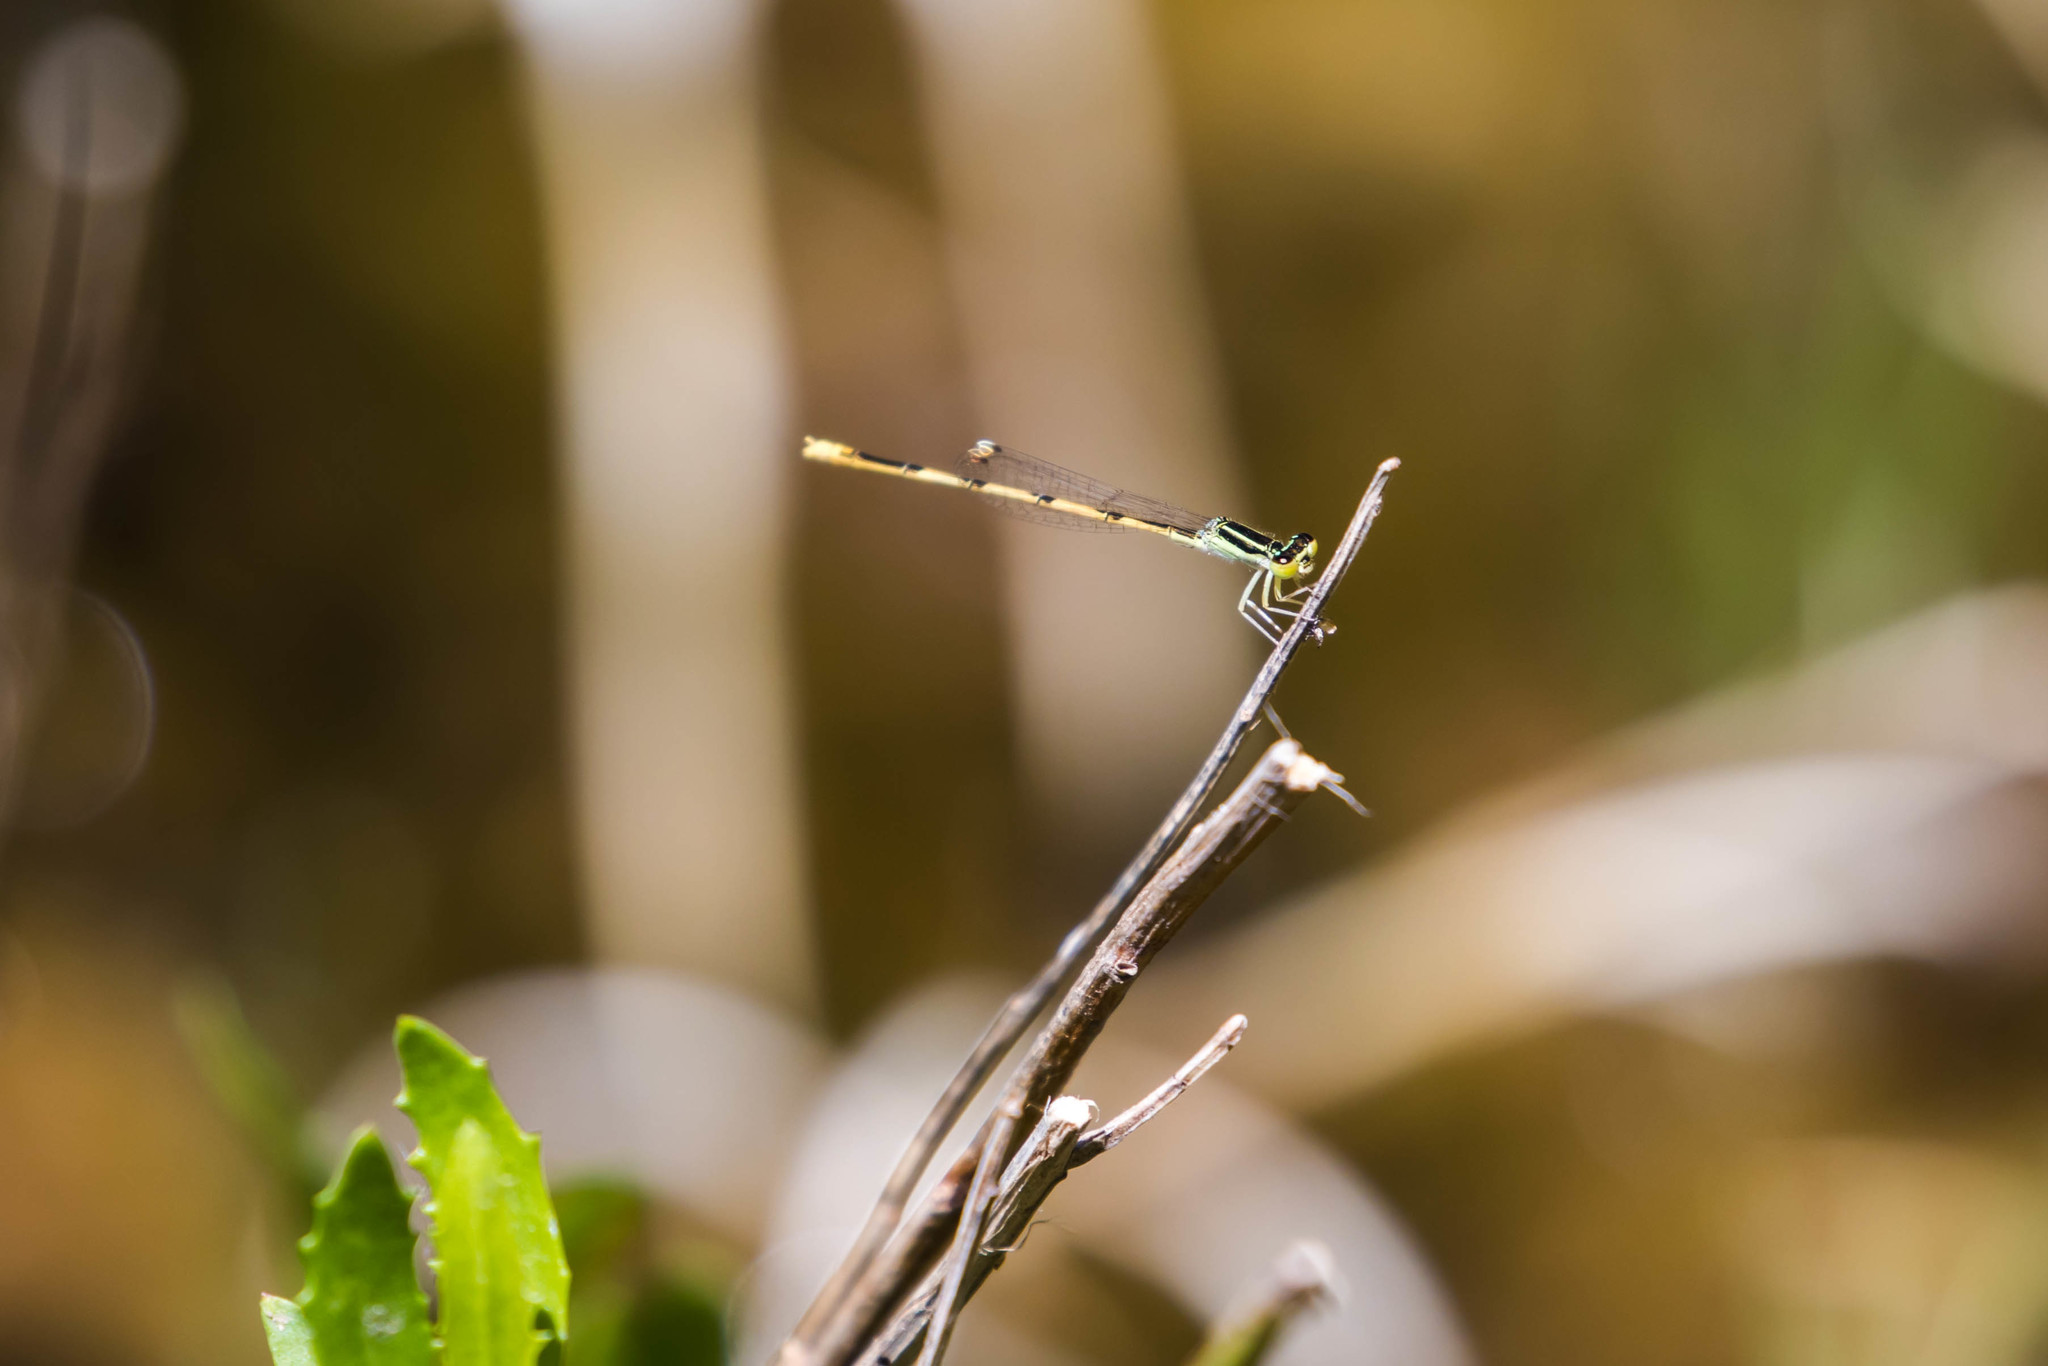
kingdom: Animalia
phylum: Arthropoda
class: Insecta
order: Odonata
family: Coenagrionidae
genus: Ischnura
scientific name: Ischnura hastata
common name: Citrine forktail
